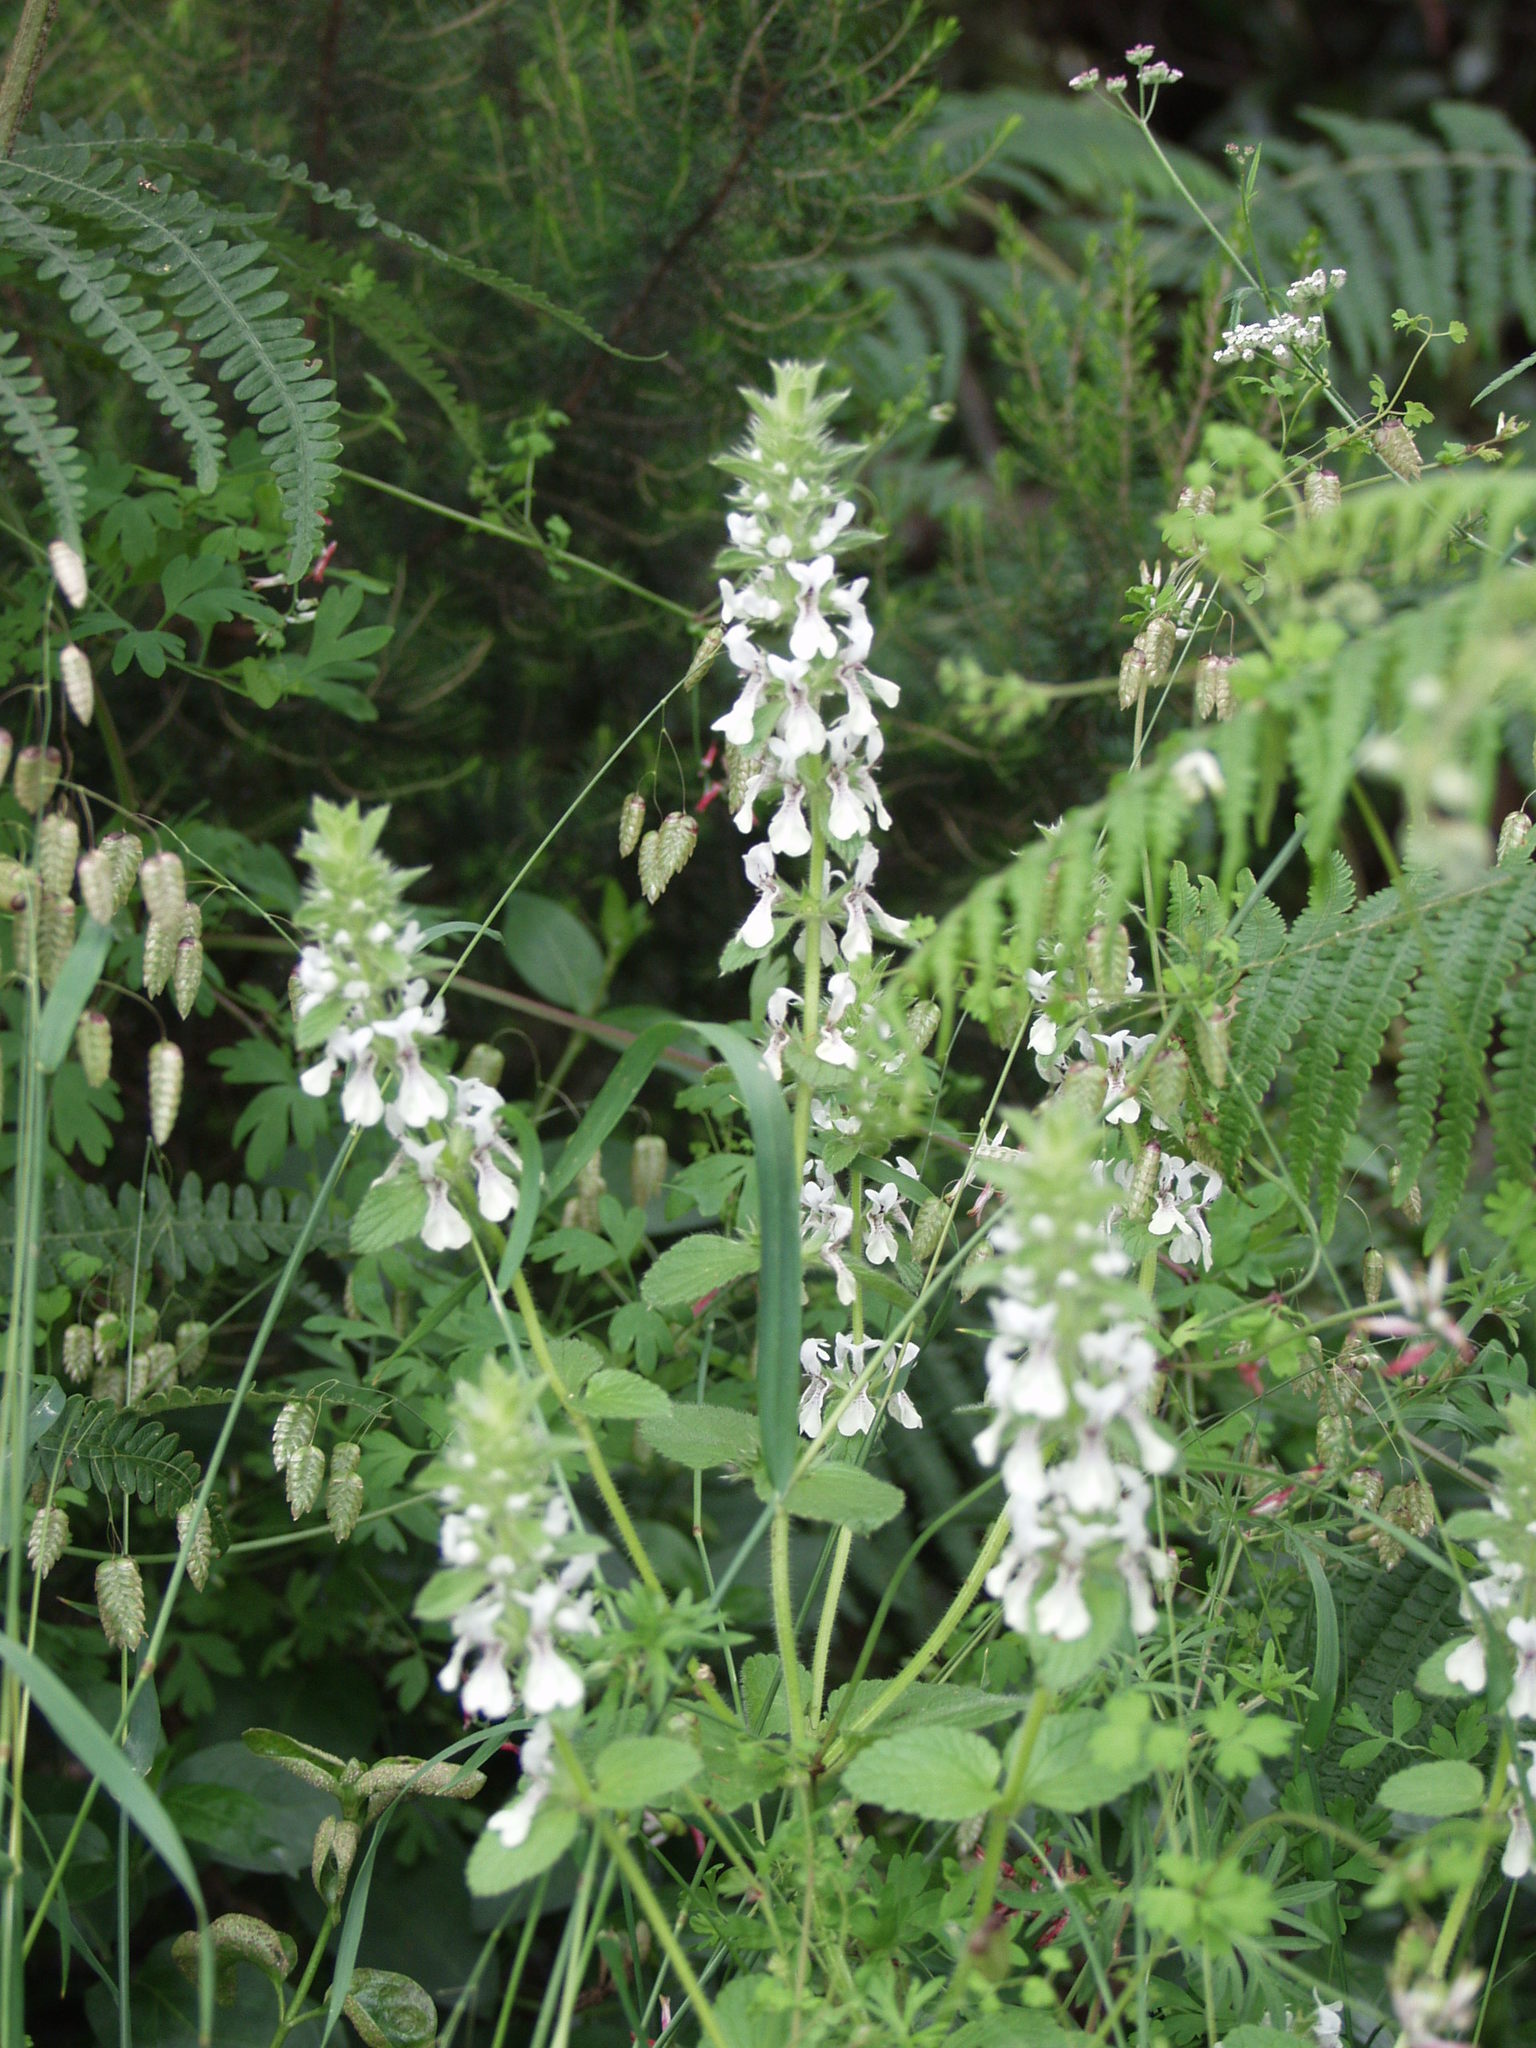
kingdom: Plantae
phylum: Tracheophyta
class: Magnoliopsida
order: Lamiales
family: Lamiaceae
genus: Stachys
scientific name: Stachys ocymastrum
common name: Italian hedgenettle
